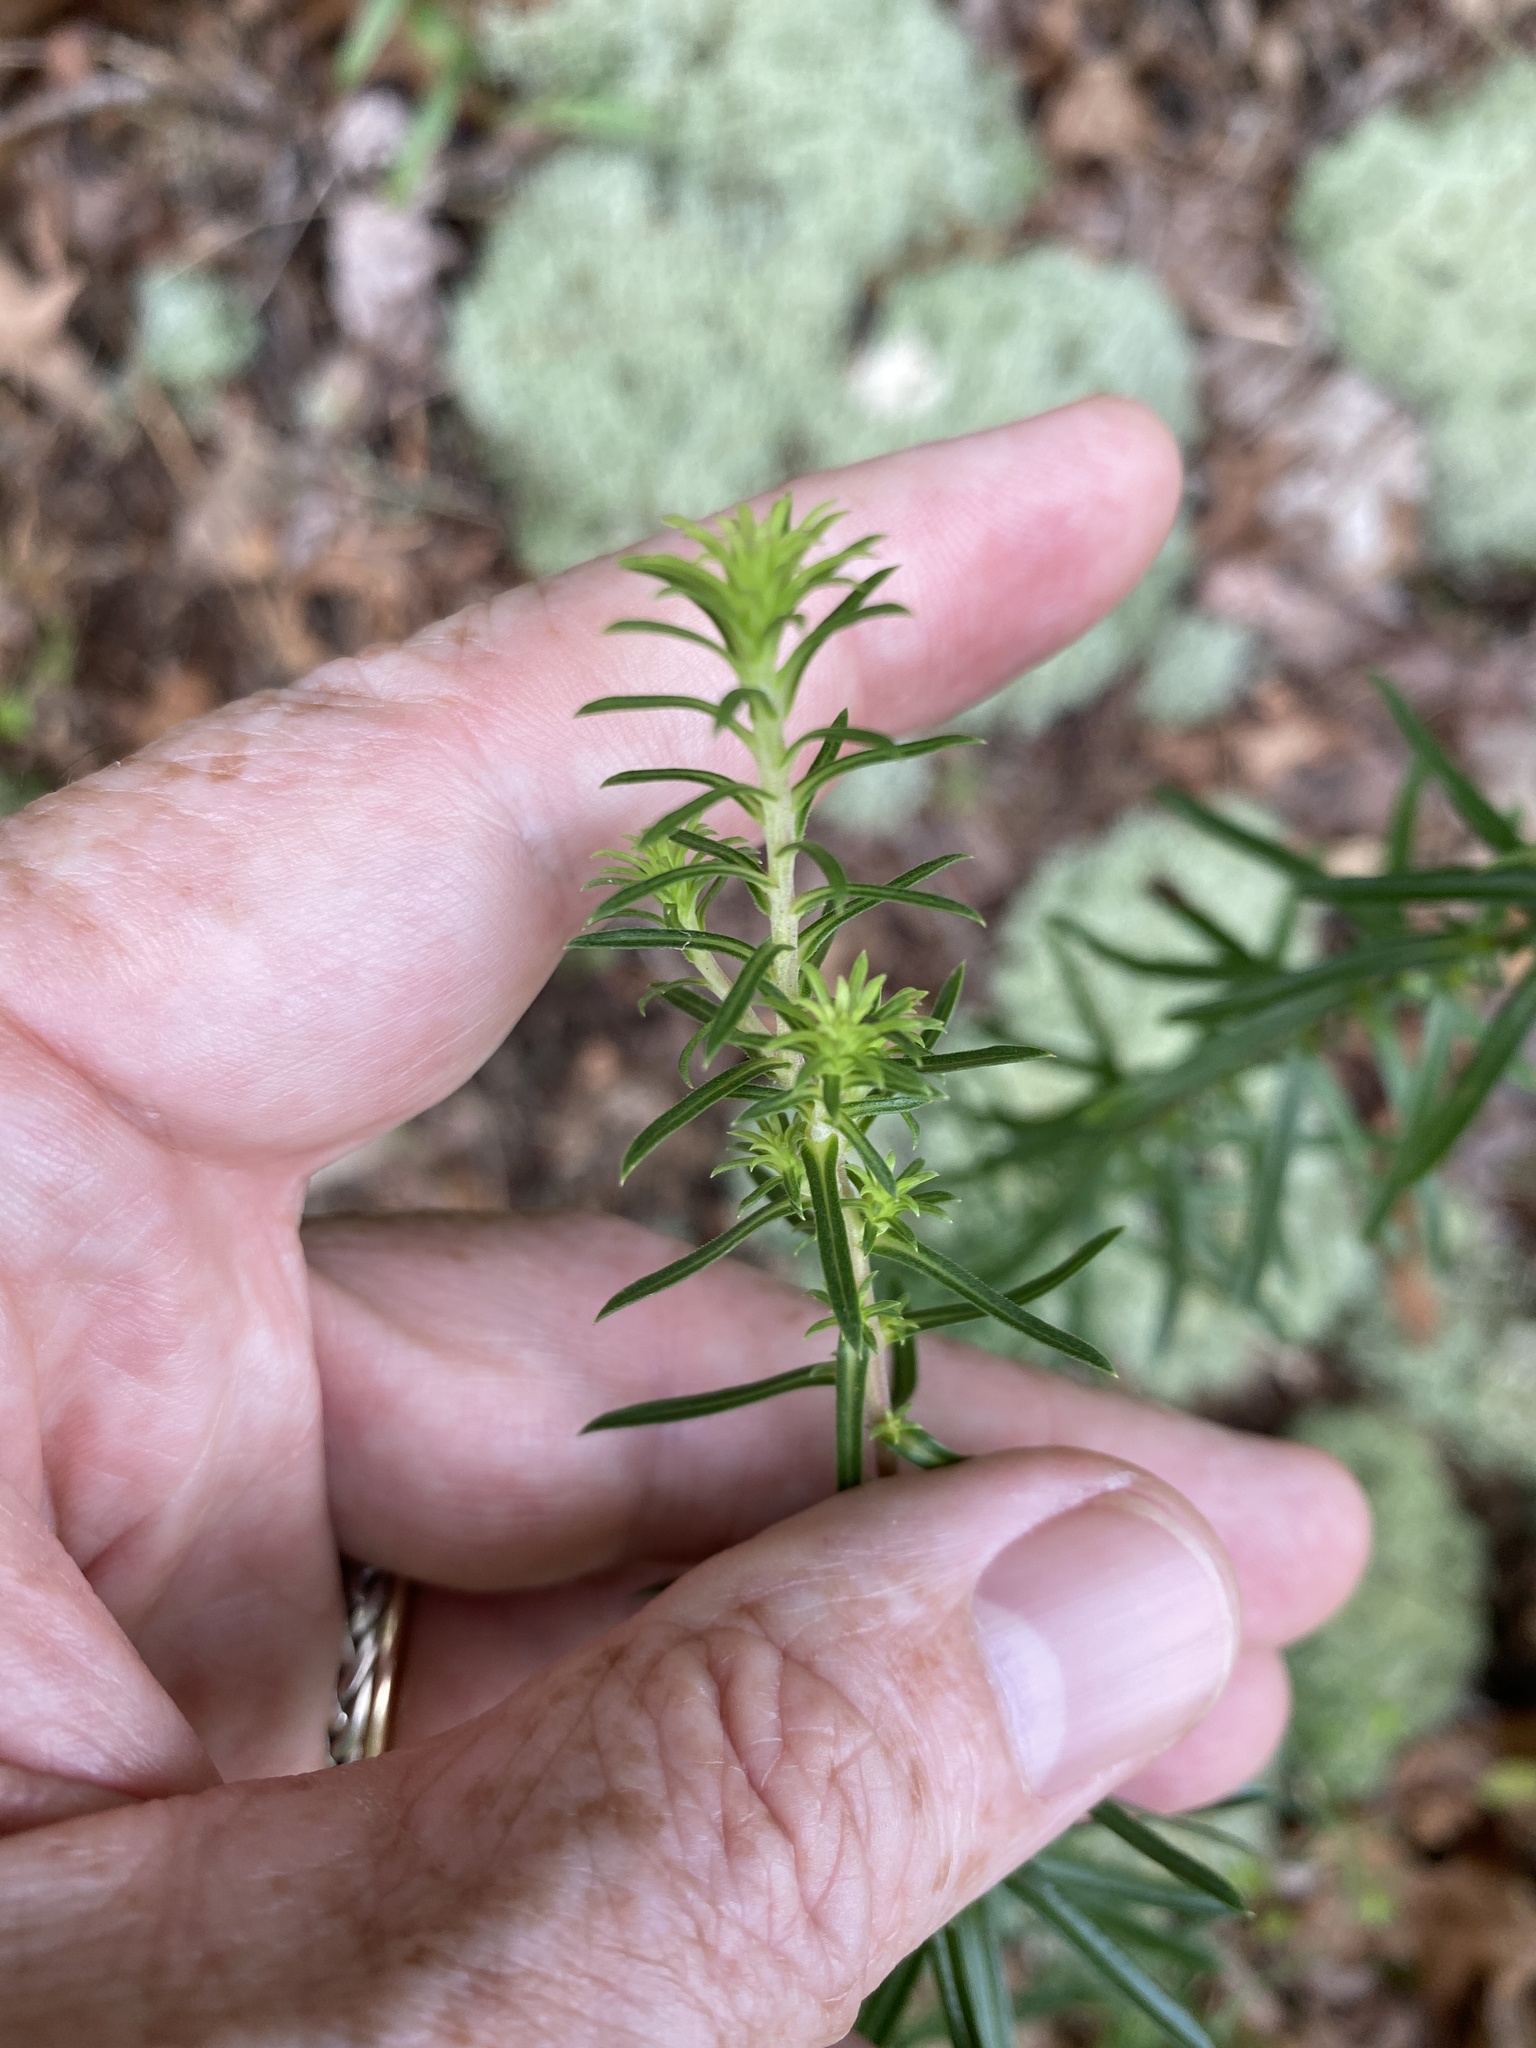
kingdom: Plantae
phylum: Tracheophyta
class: Magnoliopsida
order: Asterales
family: Asteraceae
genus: Ionactis
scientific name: Ionactis linariifolia
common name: Flax-leaf aster
